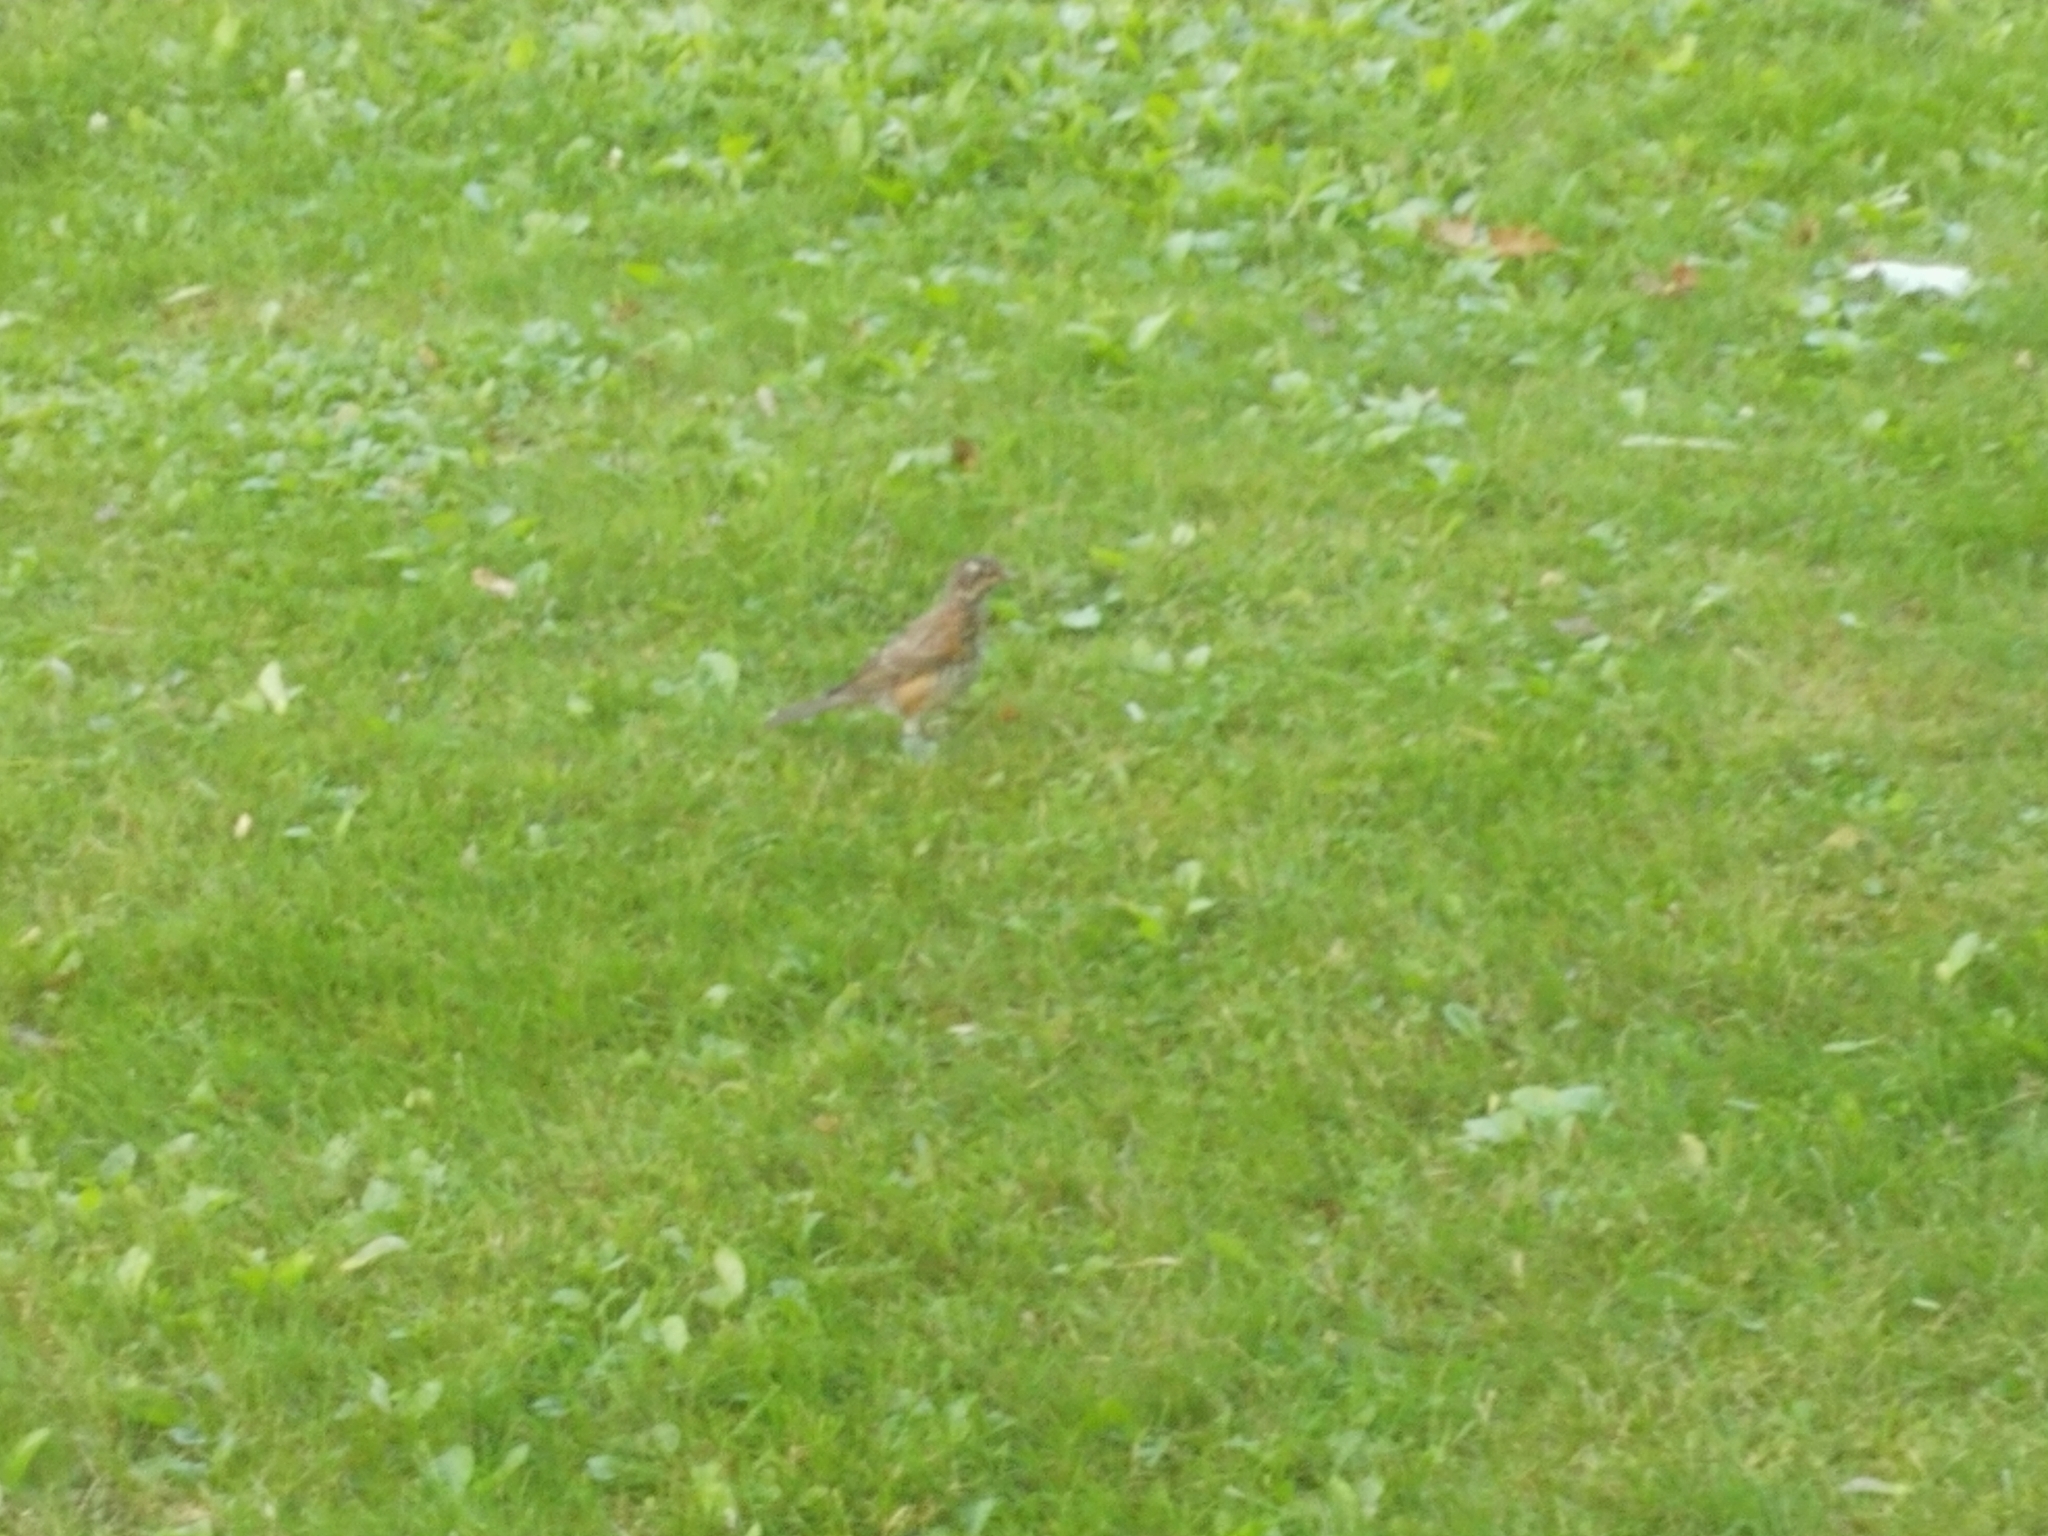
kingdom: Animalia
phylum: Chordata
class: Aves
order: Passeriformes
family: Turdidae
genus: Turdus
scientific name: Turdus migratorius
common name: American robin
